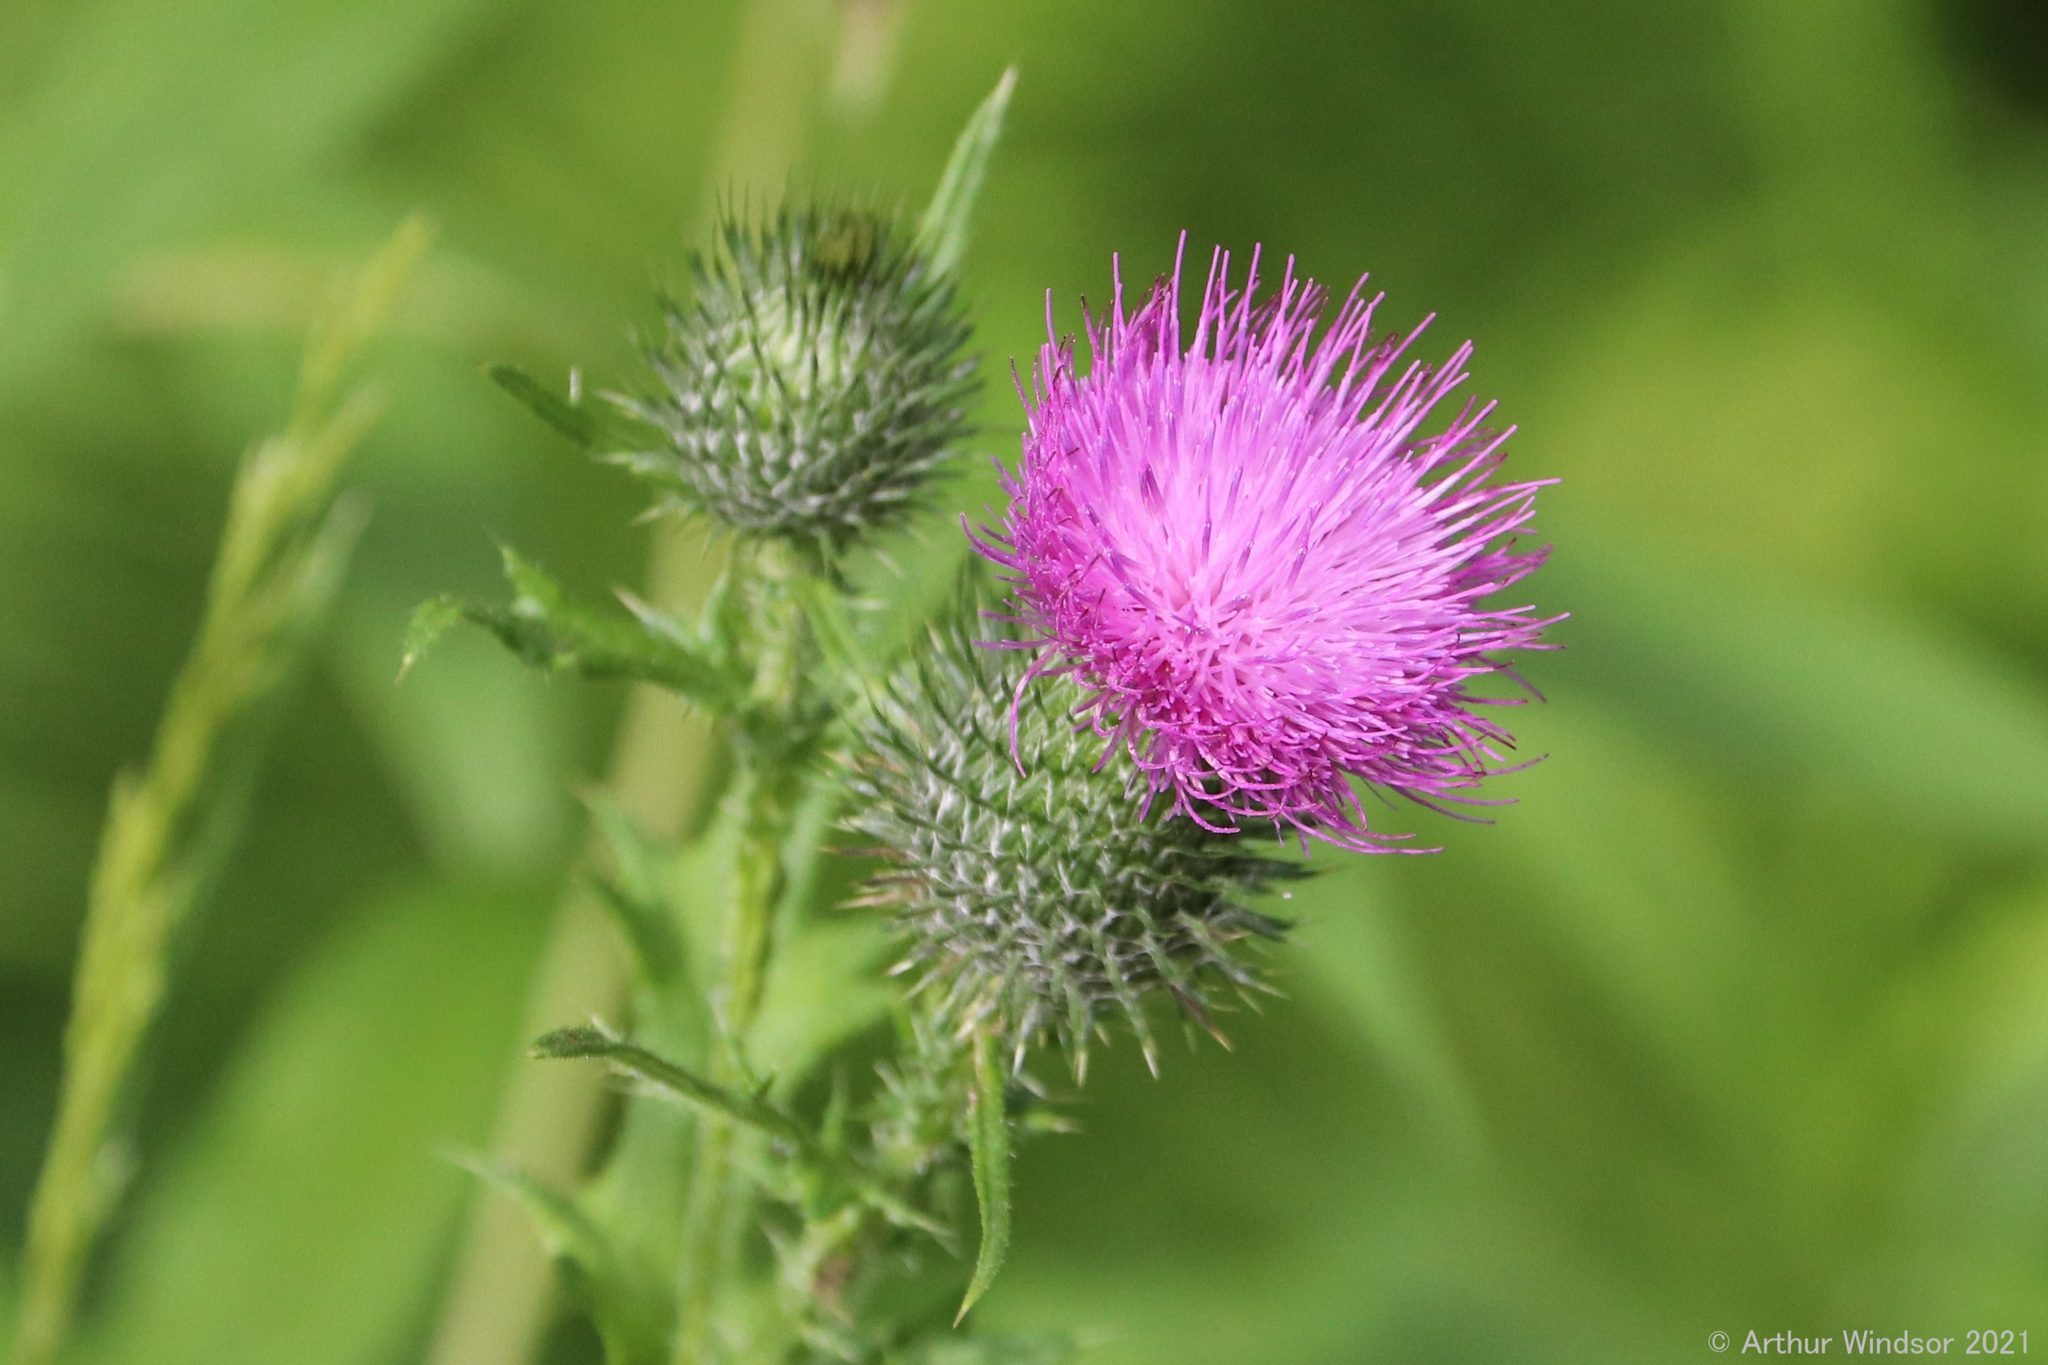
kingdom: Plantae
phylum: Tracheophyta
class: Magnoliopsida
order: Asterales
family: Asteraceae
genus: Cirsium
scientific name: Cirsium vulgare
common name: Bull thistle
